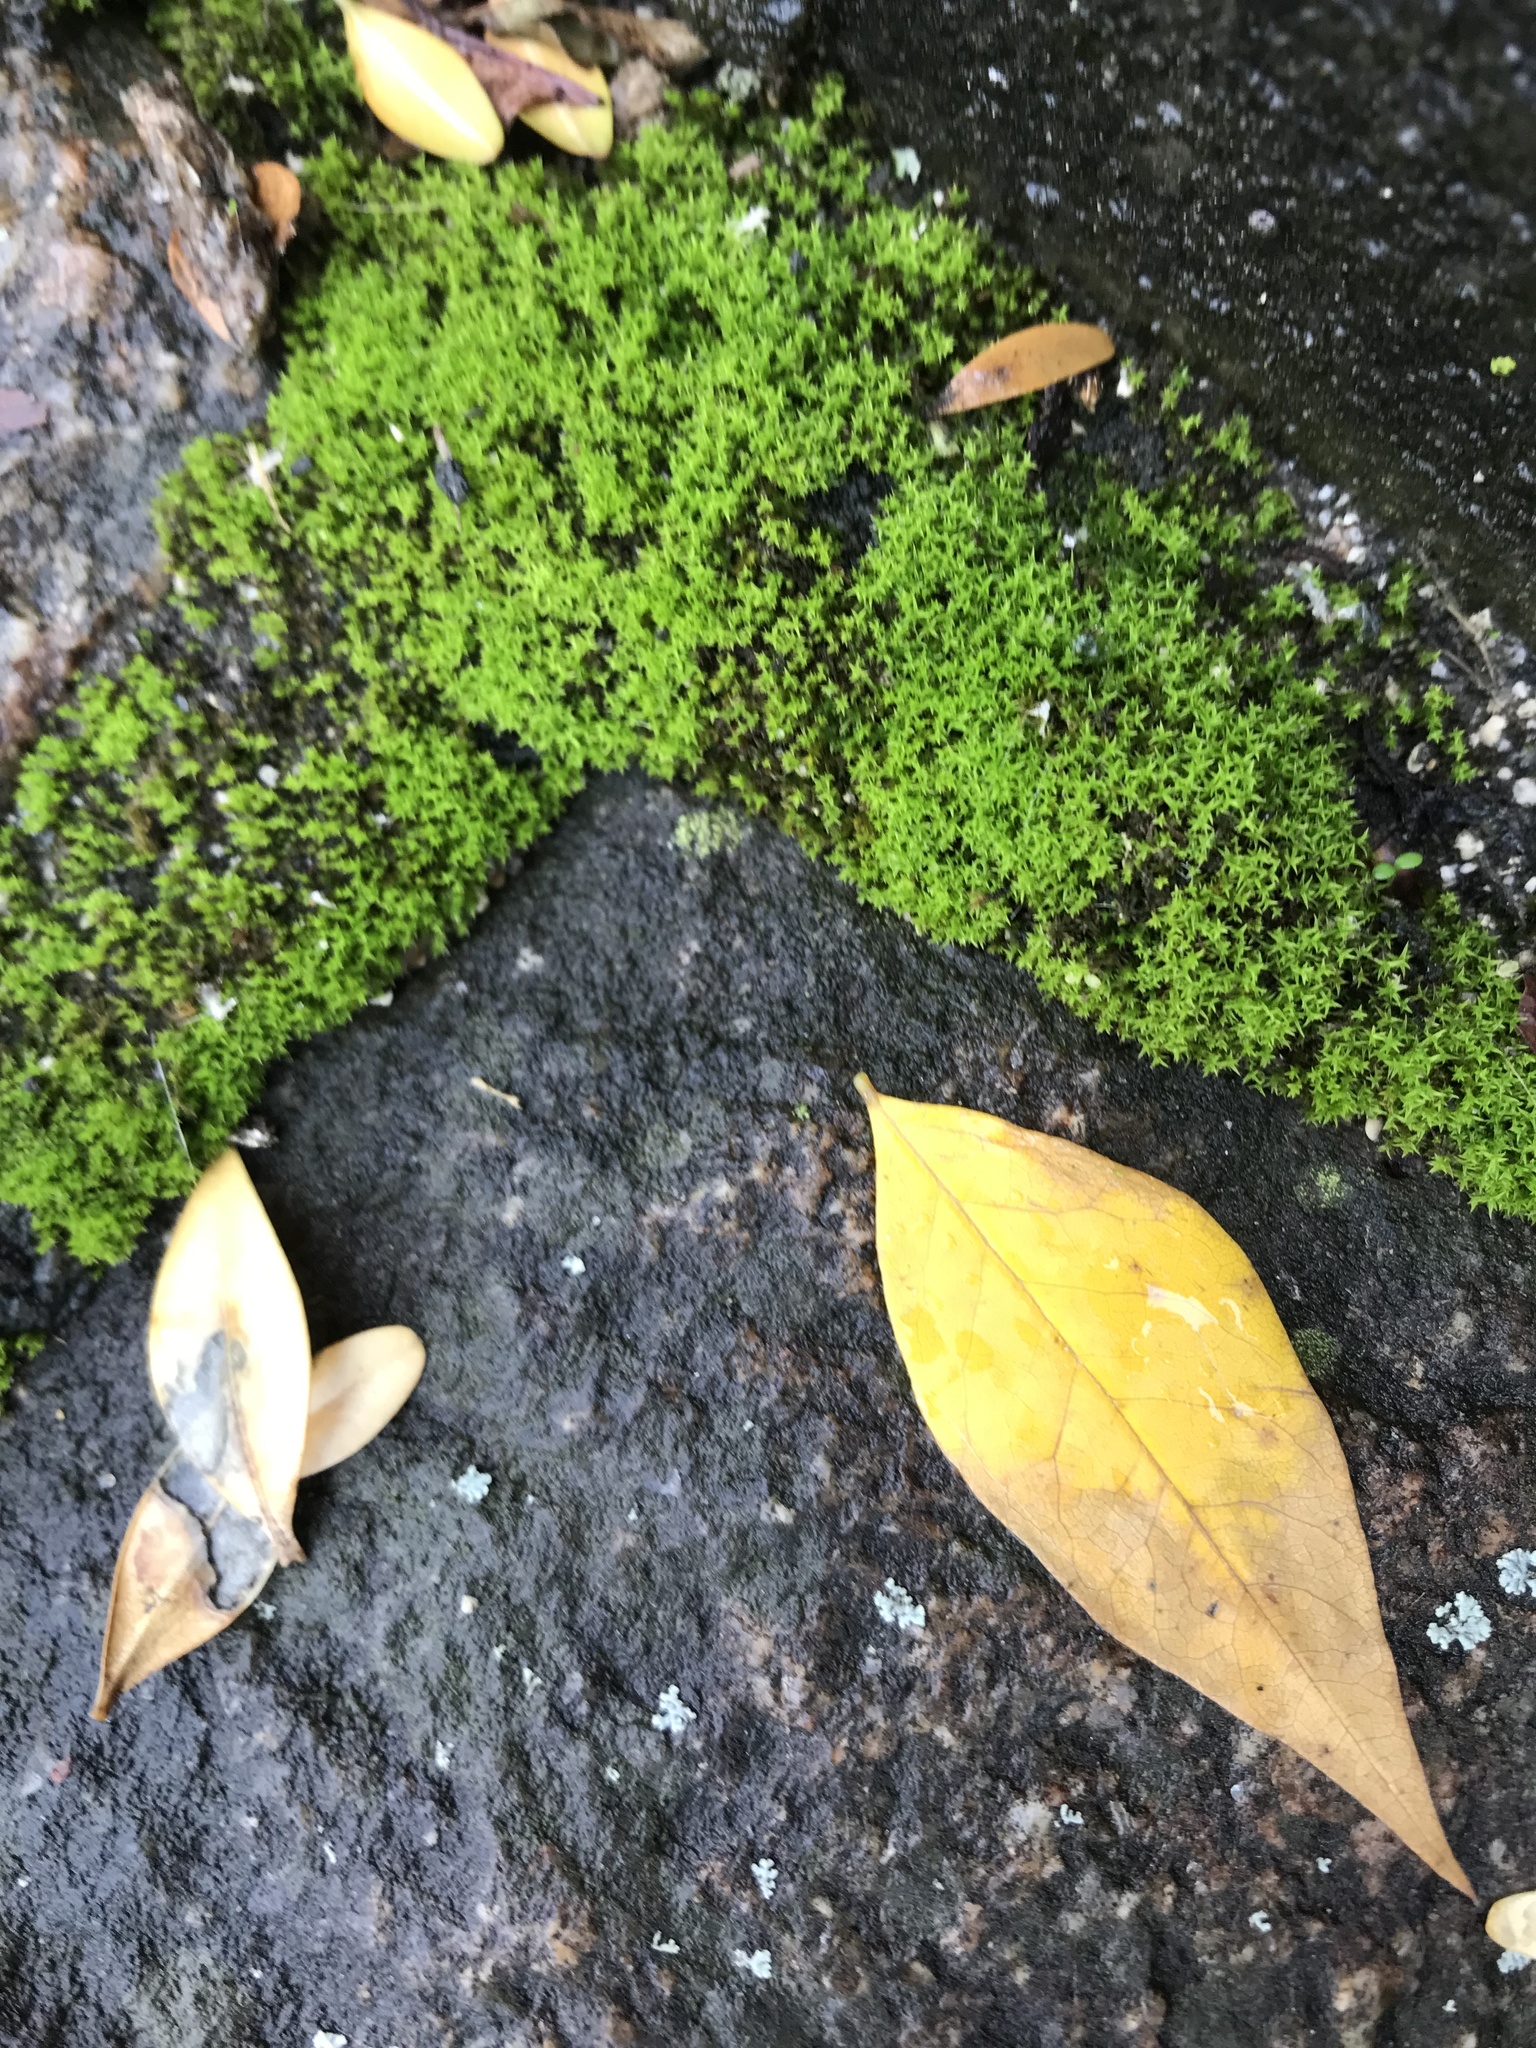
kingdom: Plantae
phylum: Bryophyta
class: Bryopsida
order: Pottiales
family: Pottiaceae
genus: Barbula
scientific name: Barbula unguiculata
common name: Prickly beard moss
